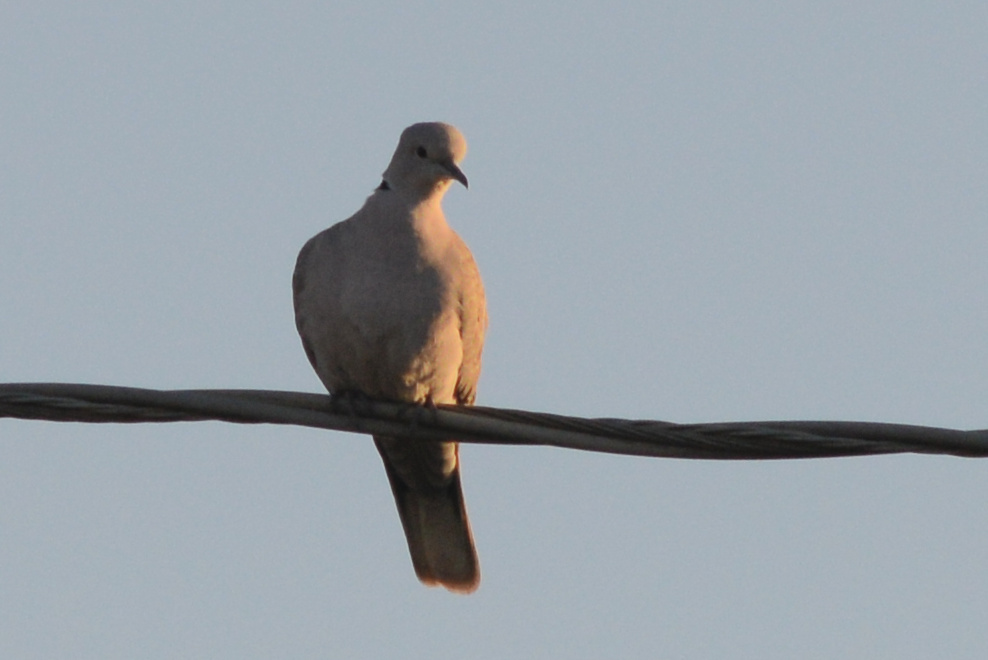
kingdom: Animalia
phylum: Chordata
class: Aves
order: Columbiformes
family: Columbidae
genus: Streptopelia
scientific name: Streptopelia decaocto
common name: Eurasian collared dove
